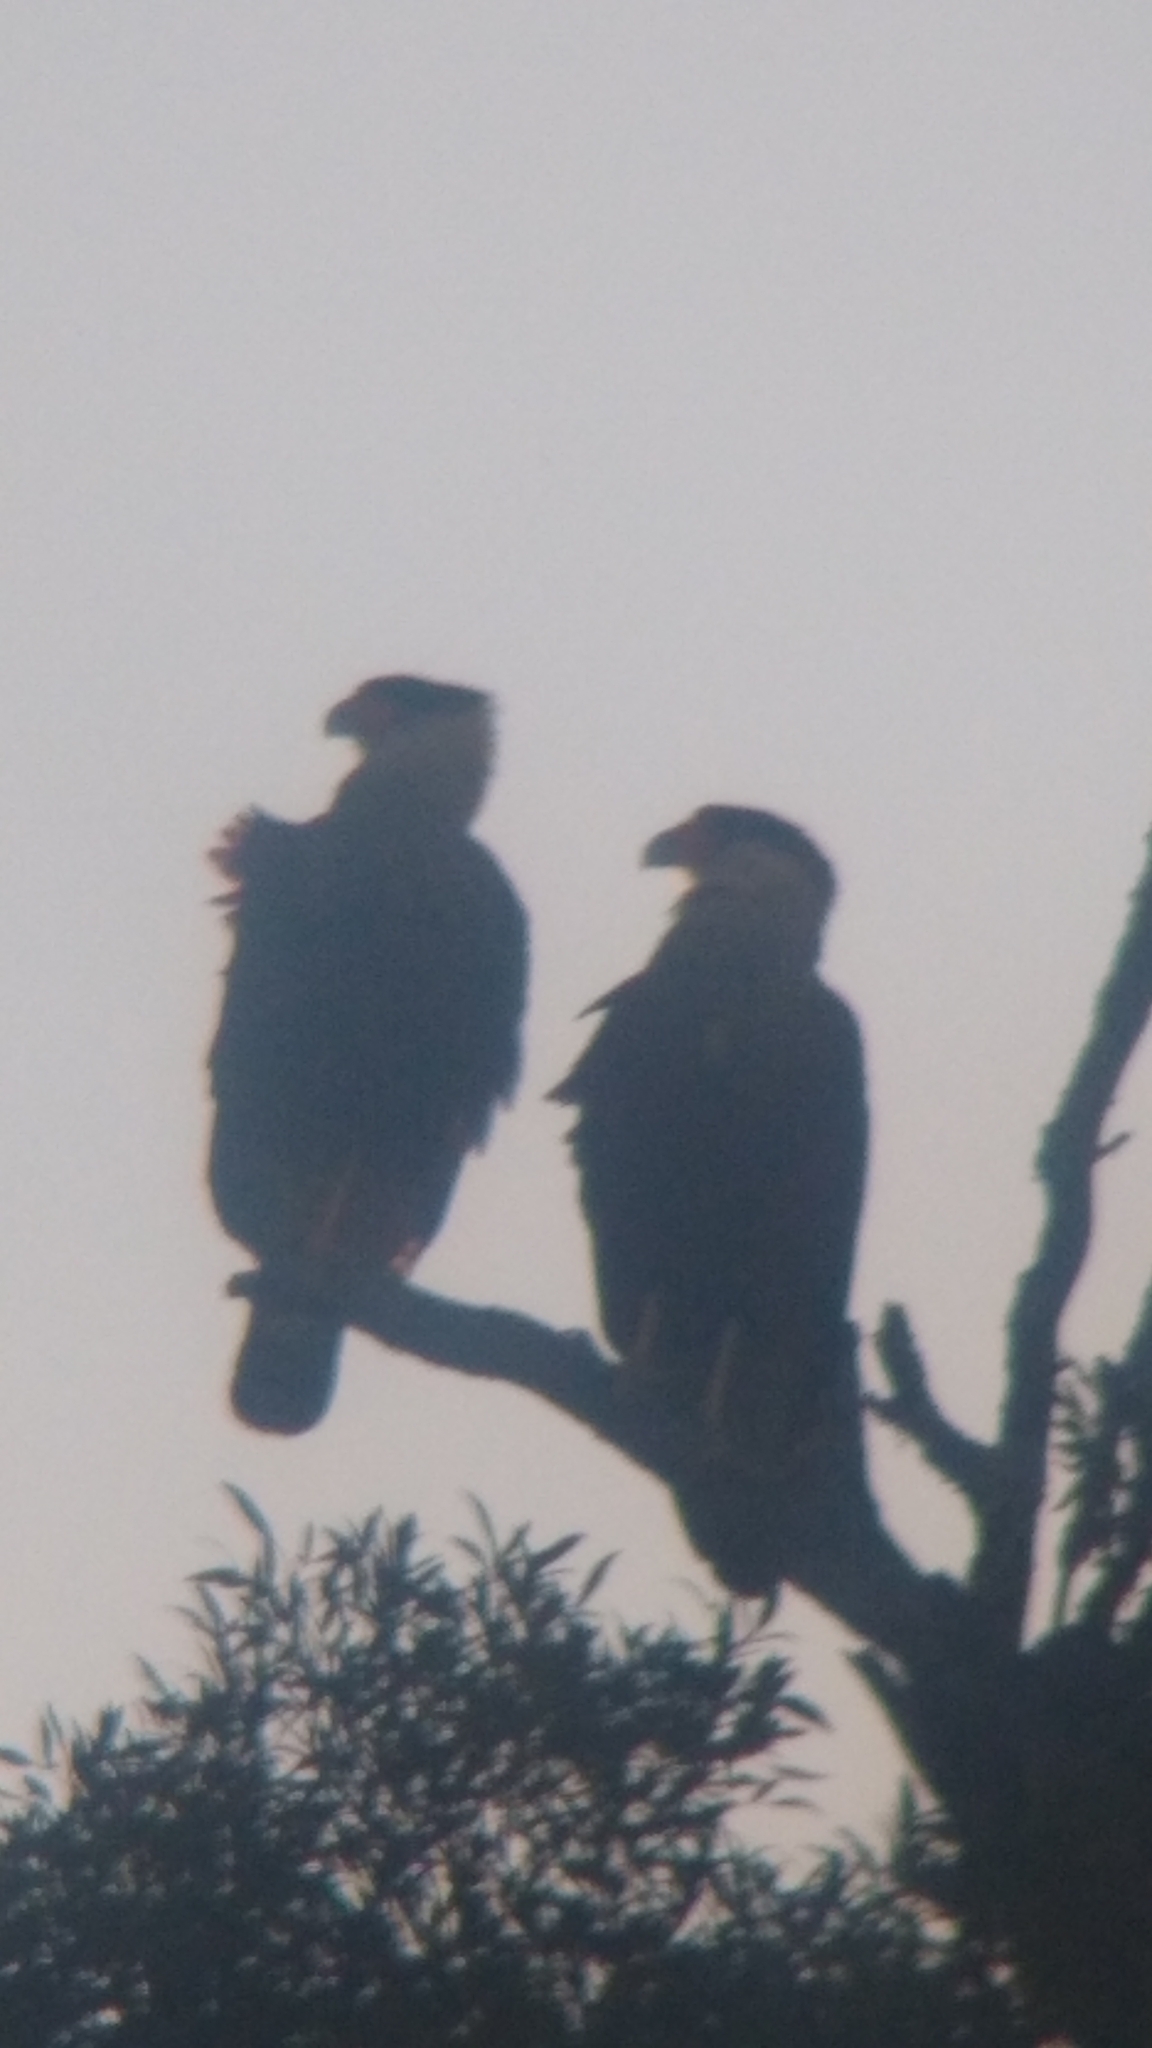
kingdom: Animalia
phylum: Chordata
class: Aves
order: Falconiformes
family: Falconidae
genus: Caracara
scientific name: Caracara plancus
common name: Southern caracara
